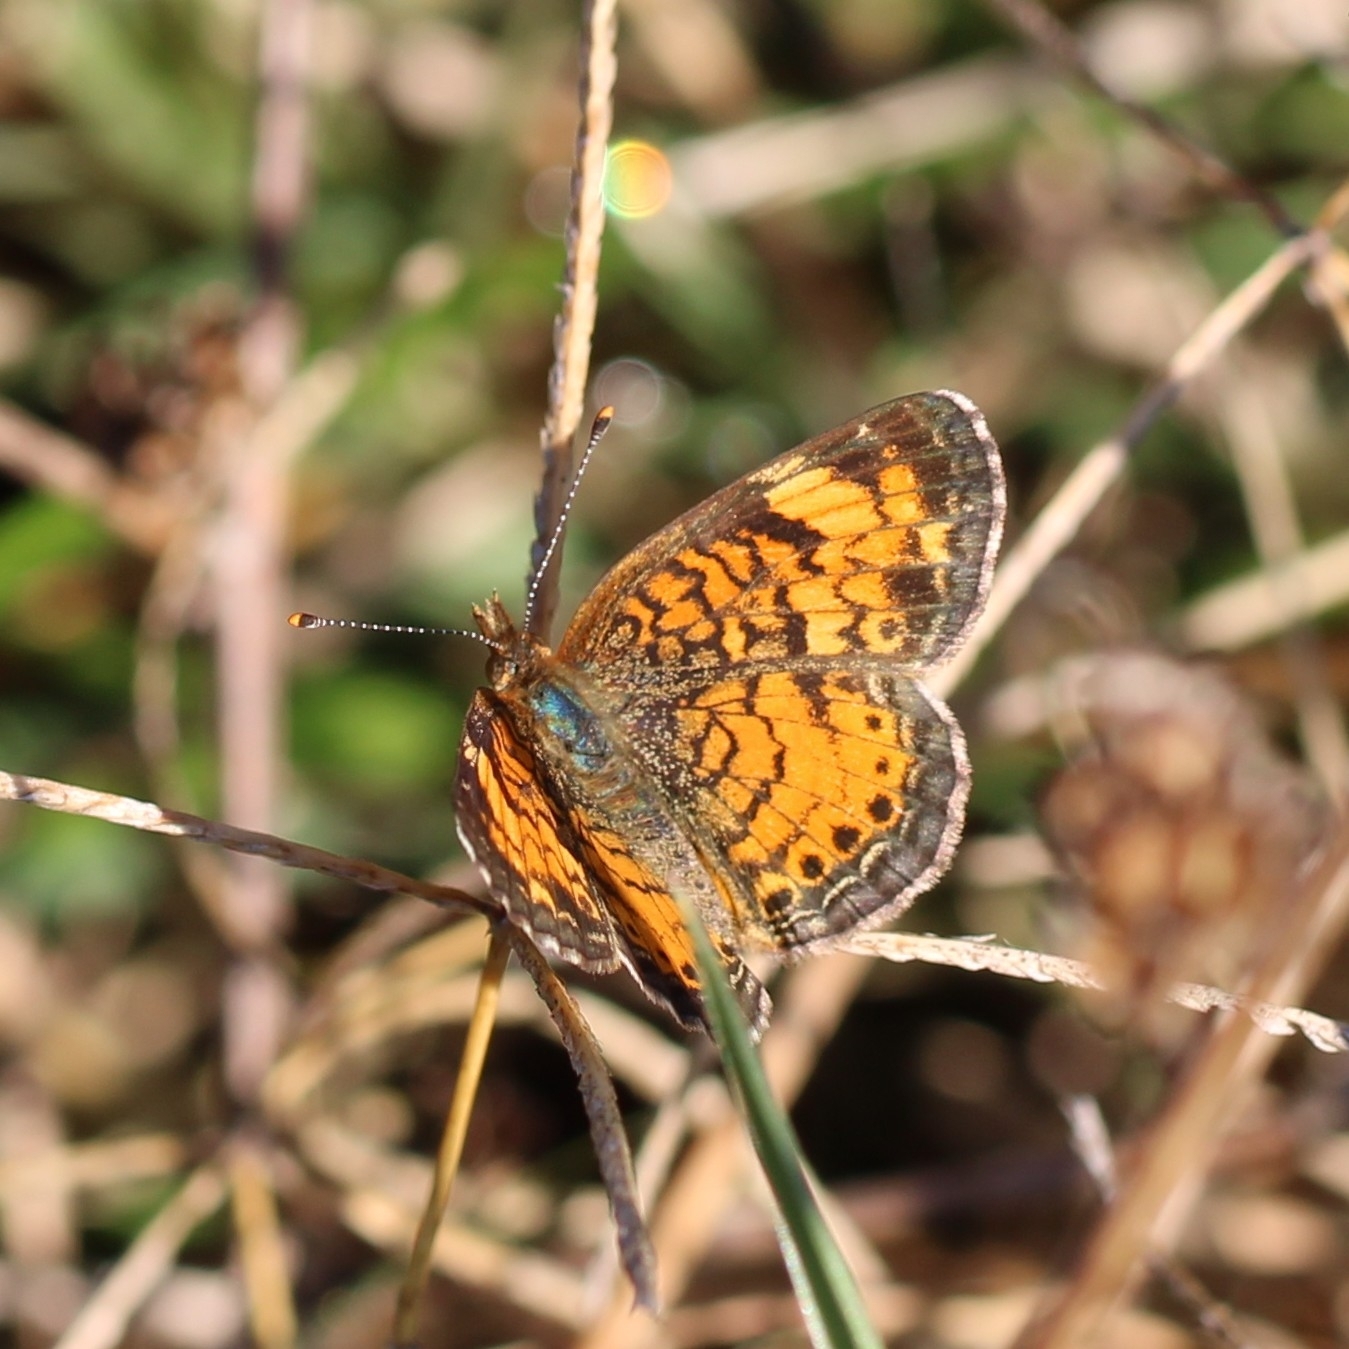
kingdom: Animalia
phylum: Arthropoda
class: Insecta
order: Lepidoptera
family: Nymphalidae
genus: Phyciodes
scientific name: Phyciodes tharos
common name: Pearl crescent
